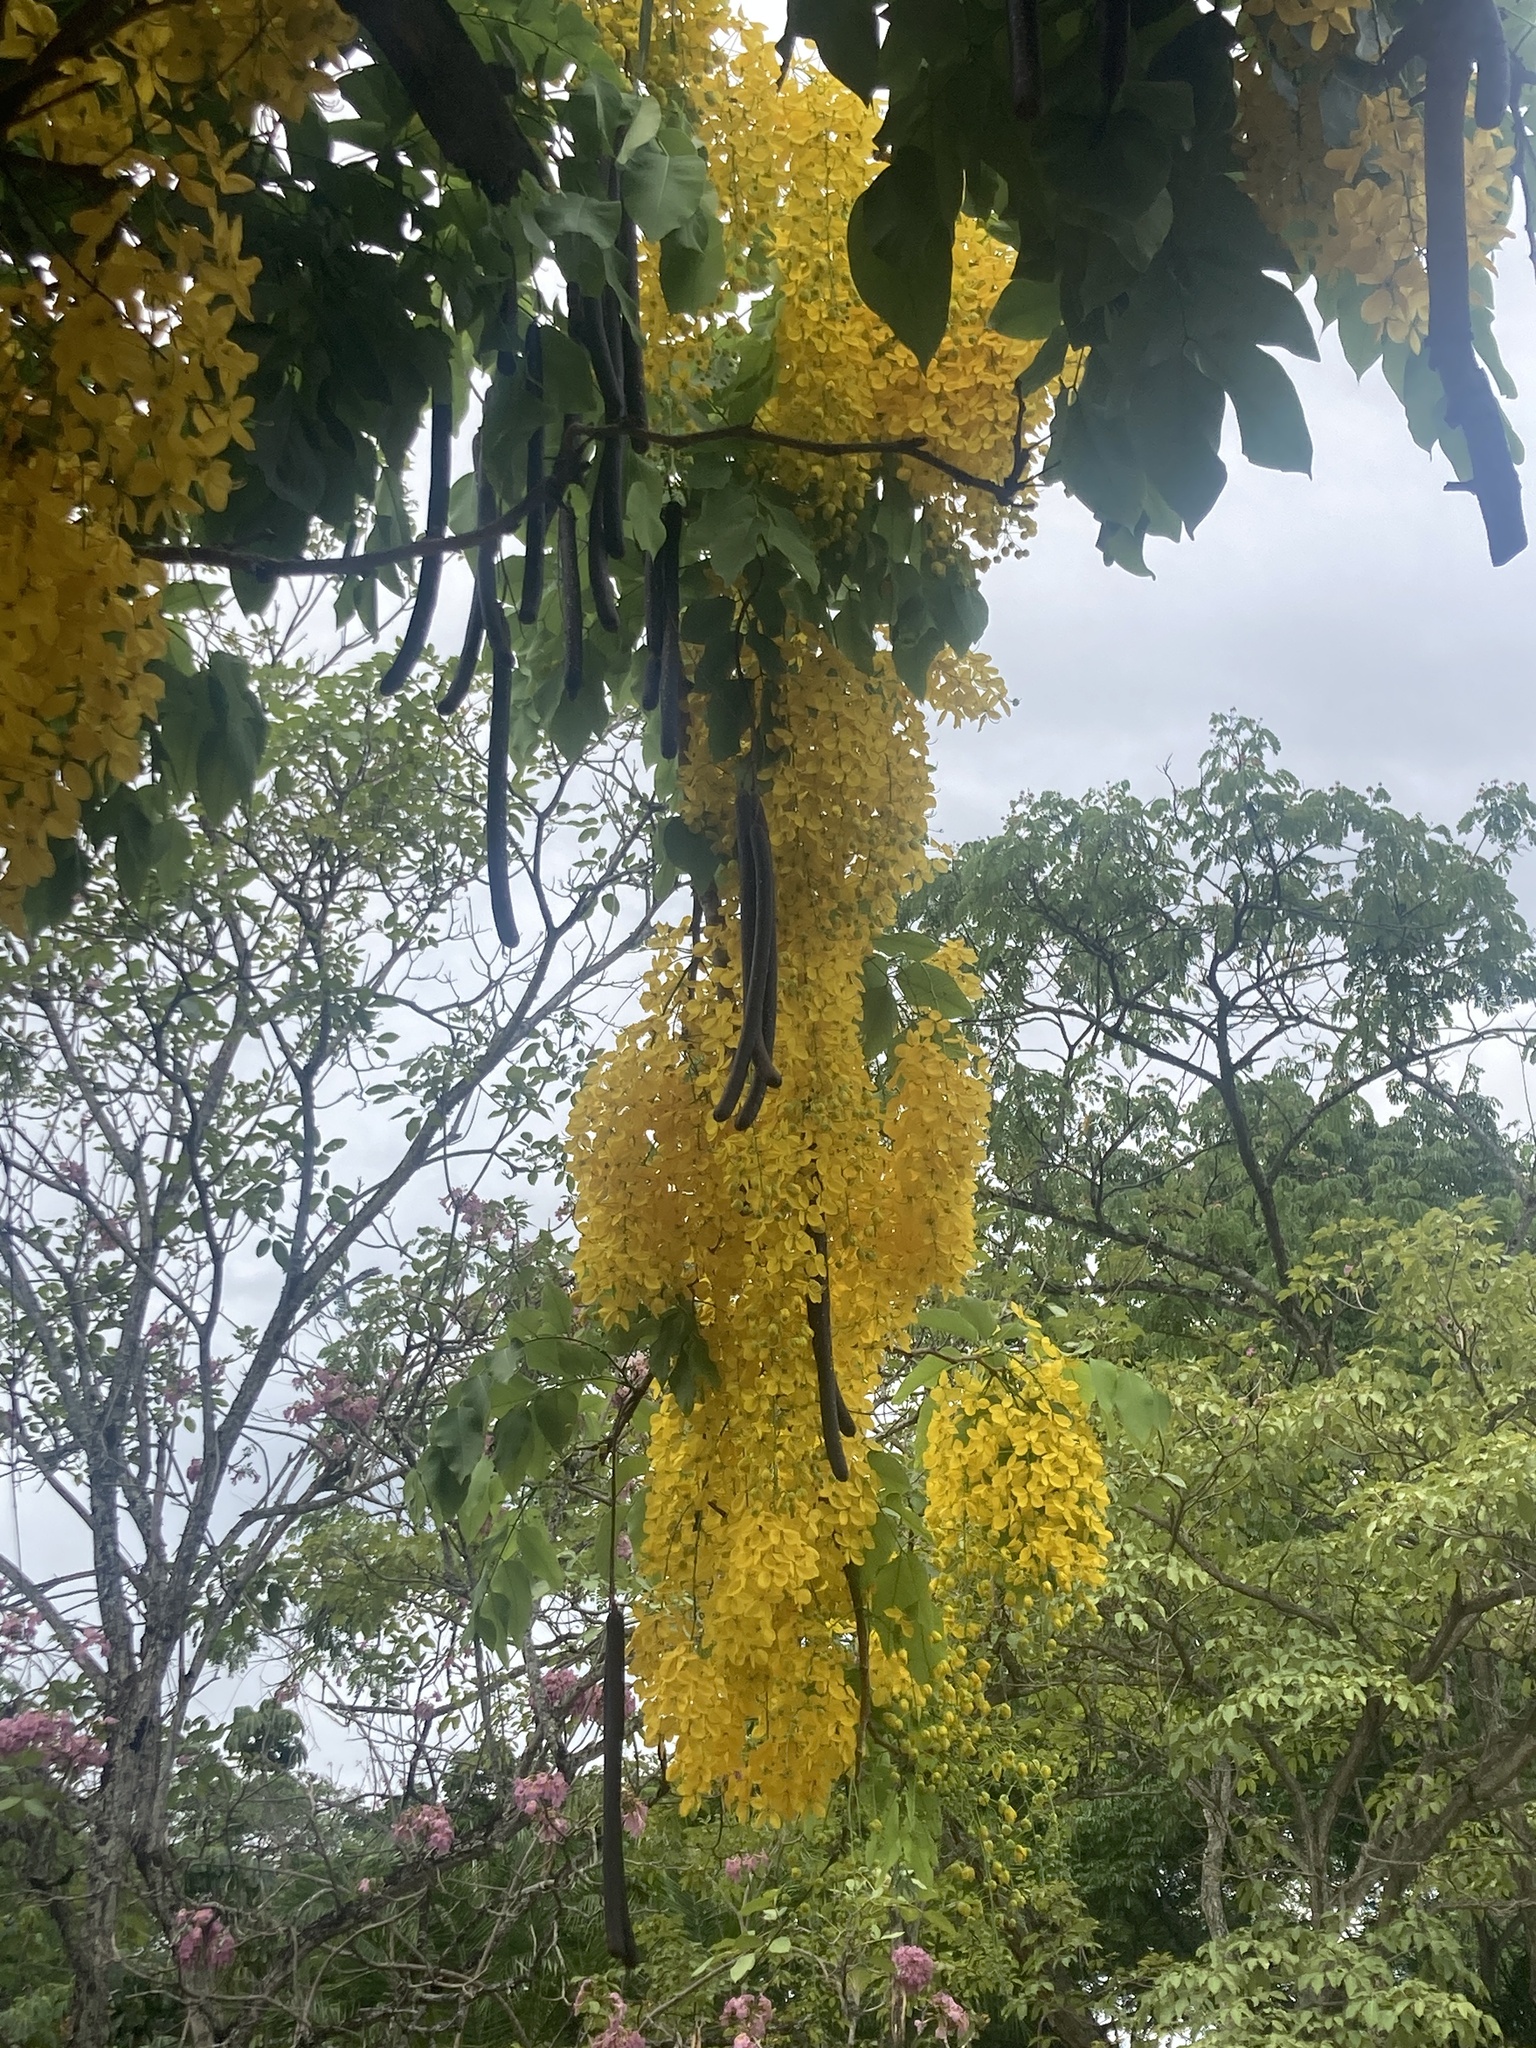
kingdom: Plantae
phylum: Tracheophyta
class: Magnoliopsida
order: Fabales
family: Fabaceae
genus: Cassia
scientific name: Cassia fistula
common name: Golden shower
